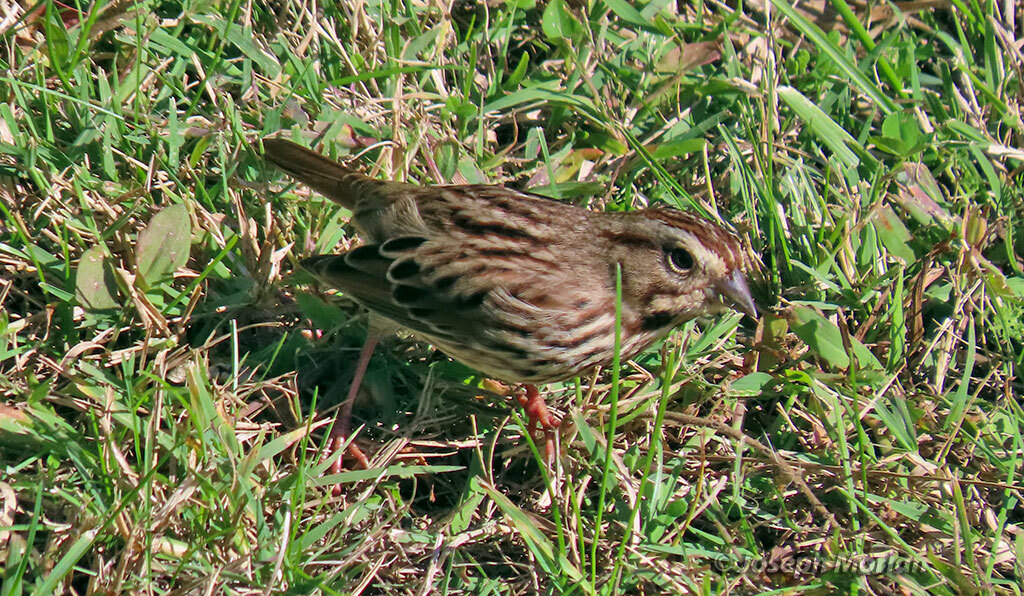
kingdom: Animalia
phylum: Chordata
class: Aves
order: Passeriformes
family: Passerellidae
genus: Melospiza
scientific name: Melospiza melodia
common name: Song sparrow
